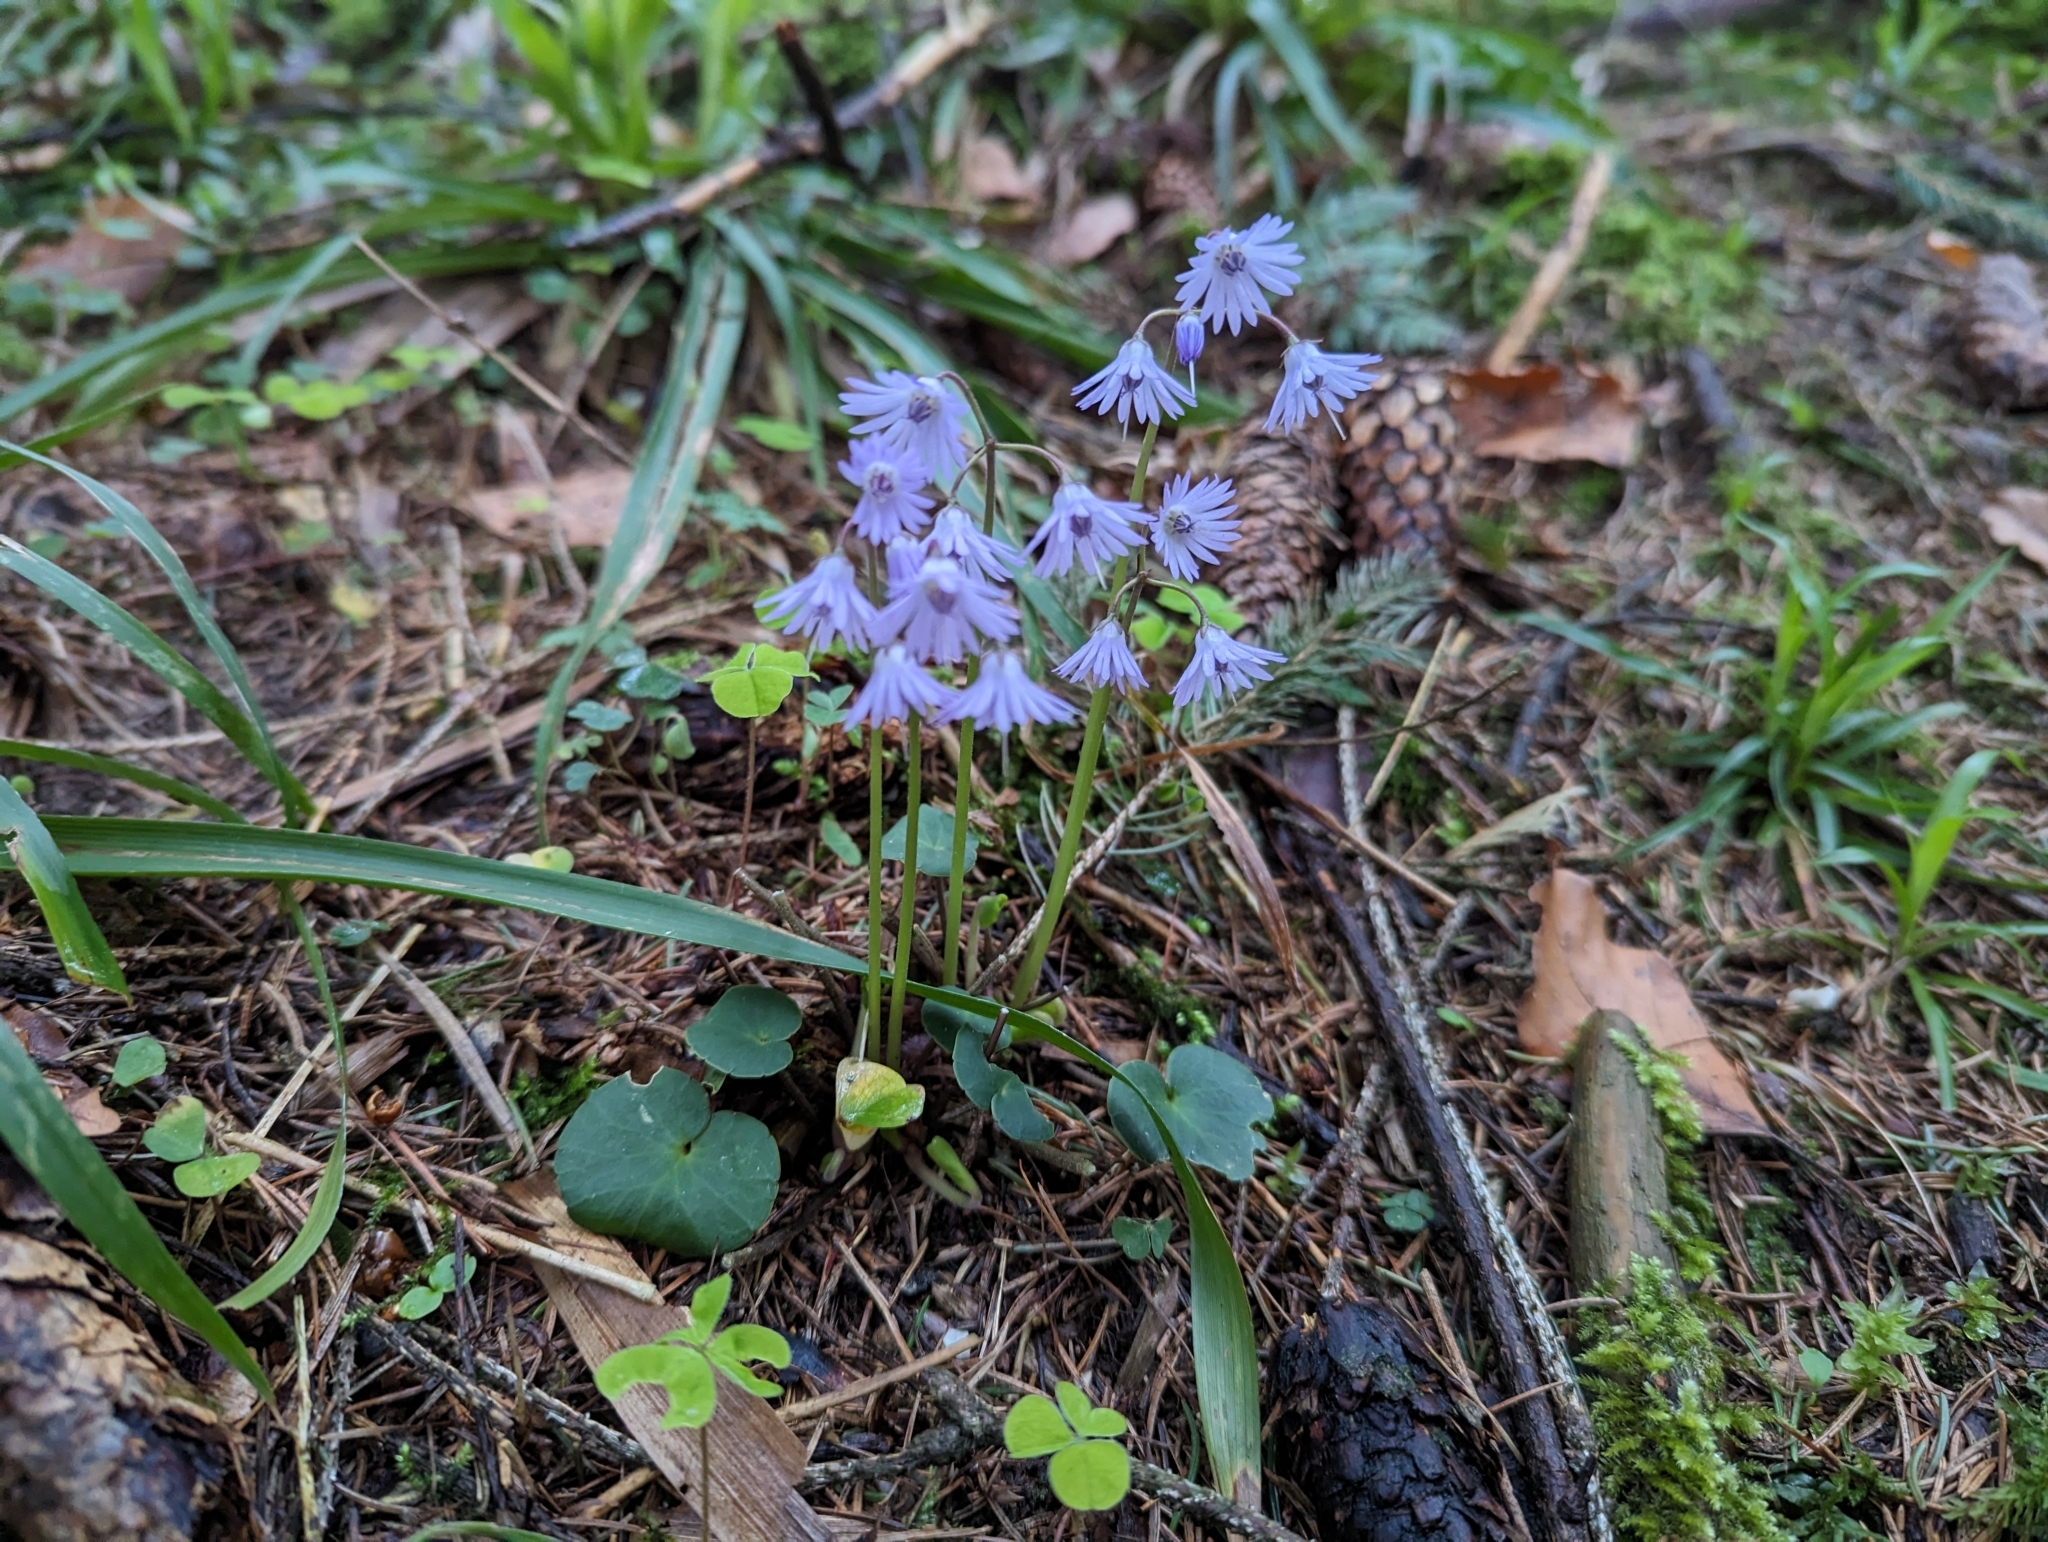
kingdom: Plantae
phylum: Tracheophyta
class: Magnoliopsida
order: Ericales
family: Primulaceae
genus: Soldanella
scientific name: Soldanella montana
